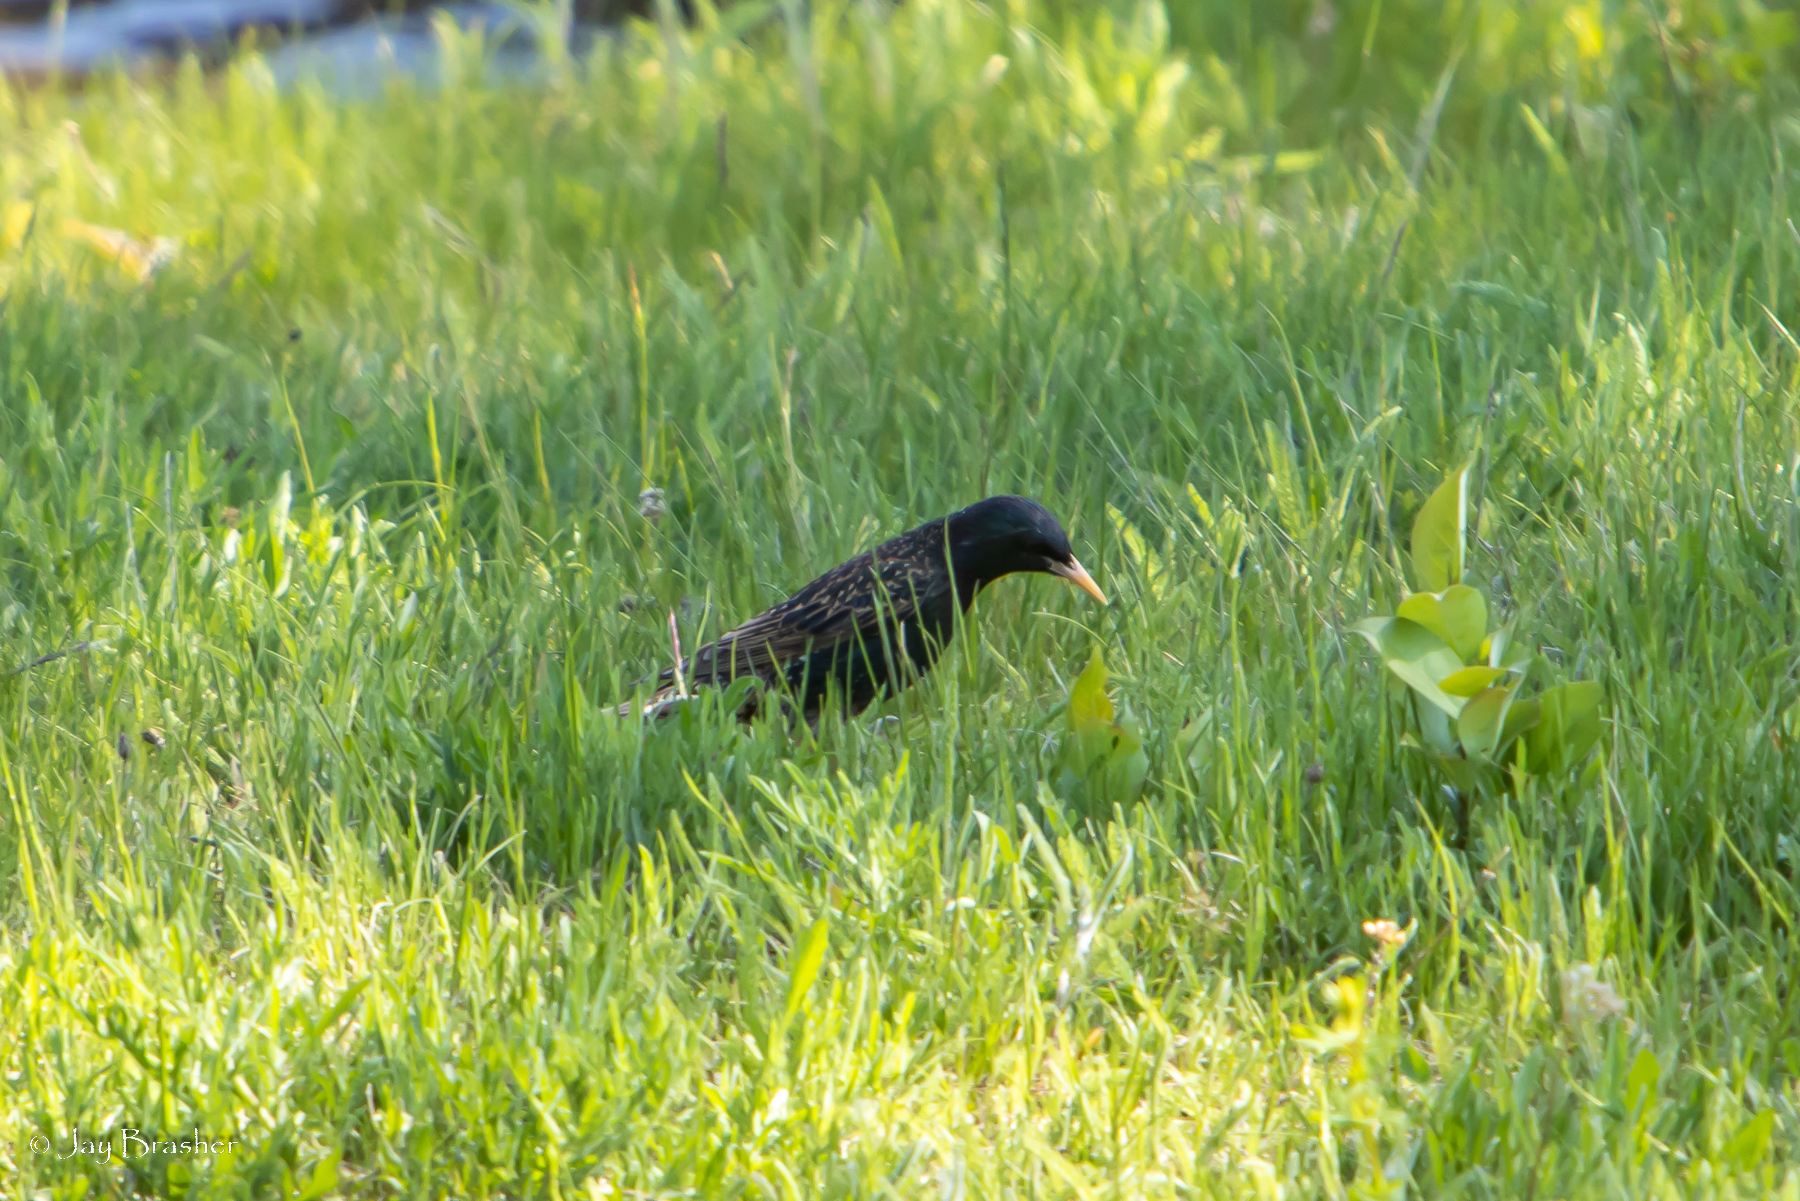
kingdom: Animalia
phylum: Chordata
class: Aves
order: Passeriformes
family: Sturnidae
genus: Sturnus
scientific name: Sturnus vulgaris
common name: Common starling
